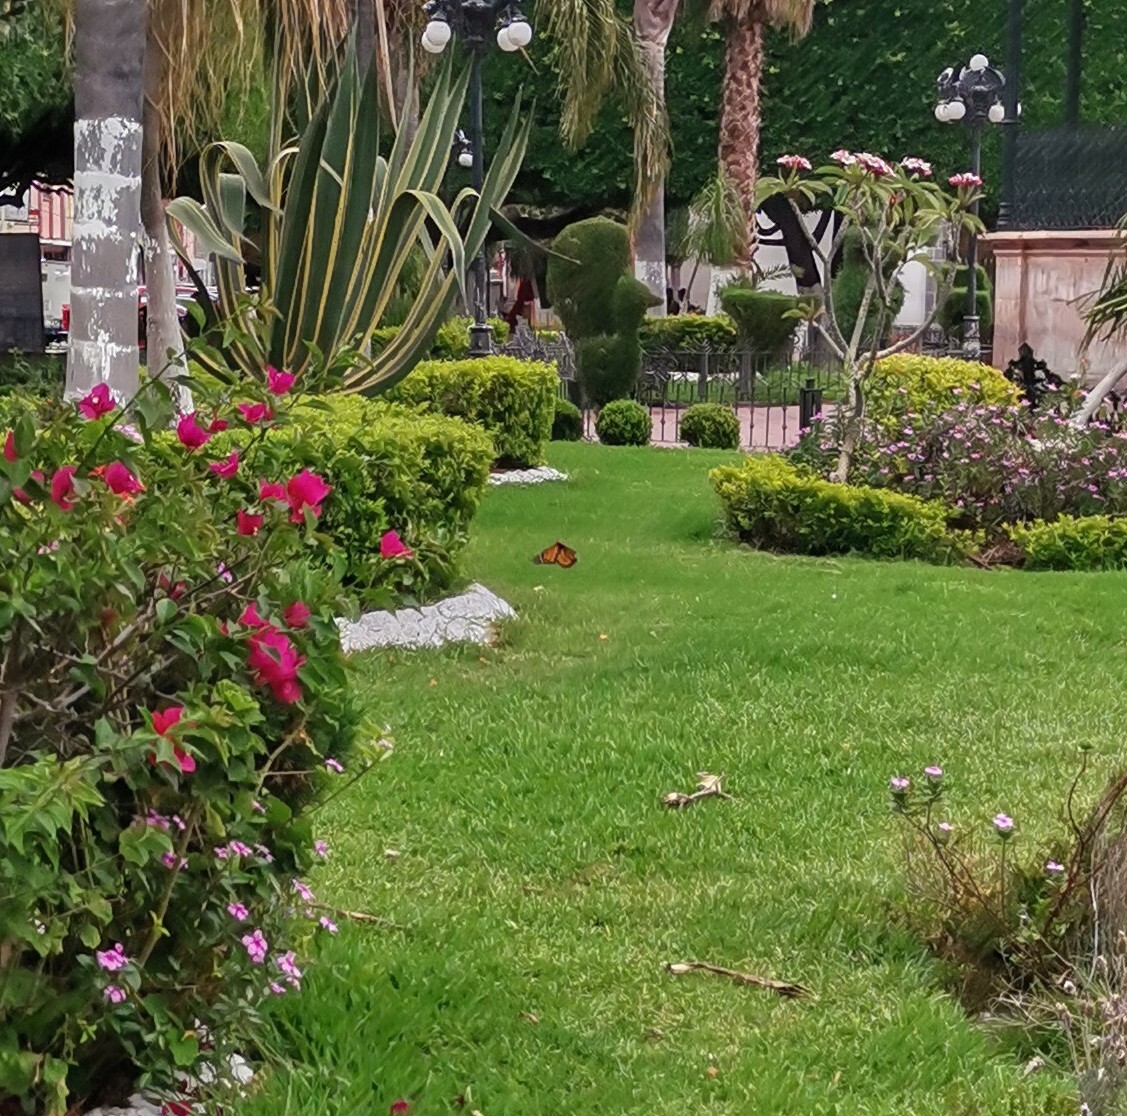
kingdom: Animalia
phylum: Arthropoda
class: Insecta
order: Lepidoptera
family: Nymphalidae
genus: Danaus
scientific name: Danaus plexippus
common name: Monarch
